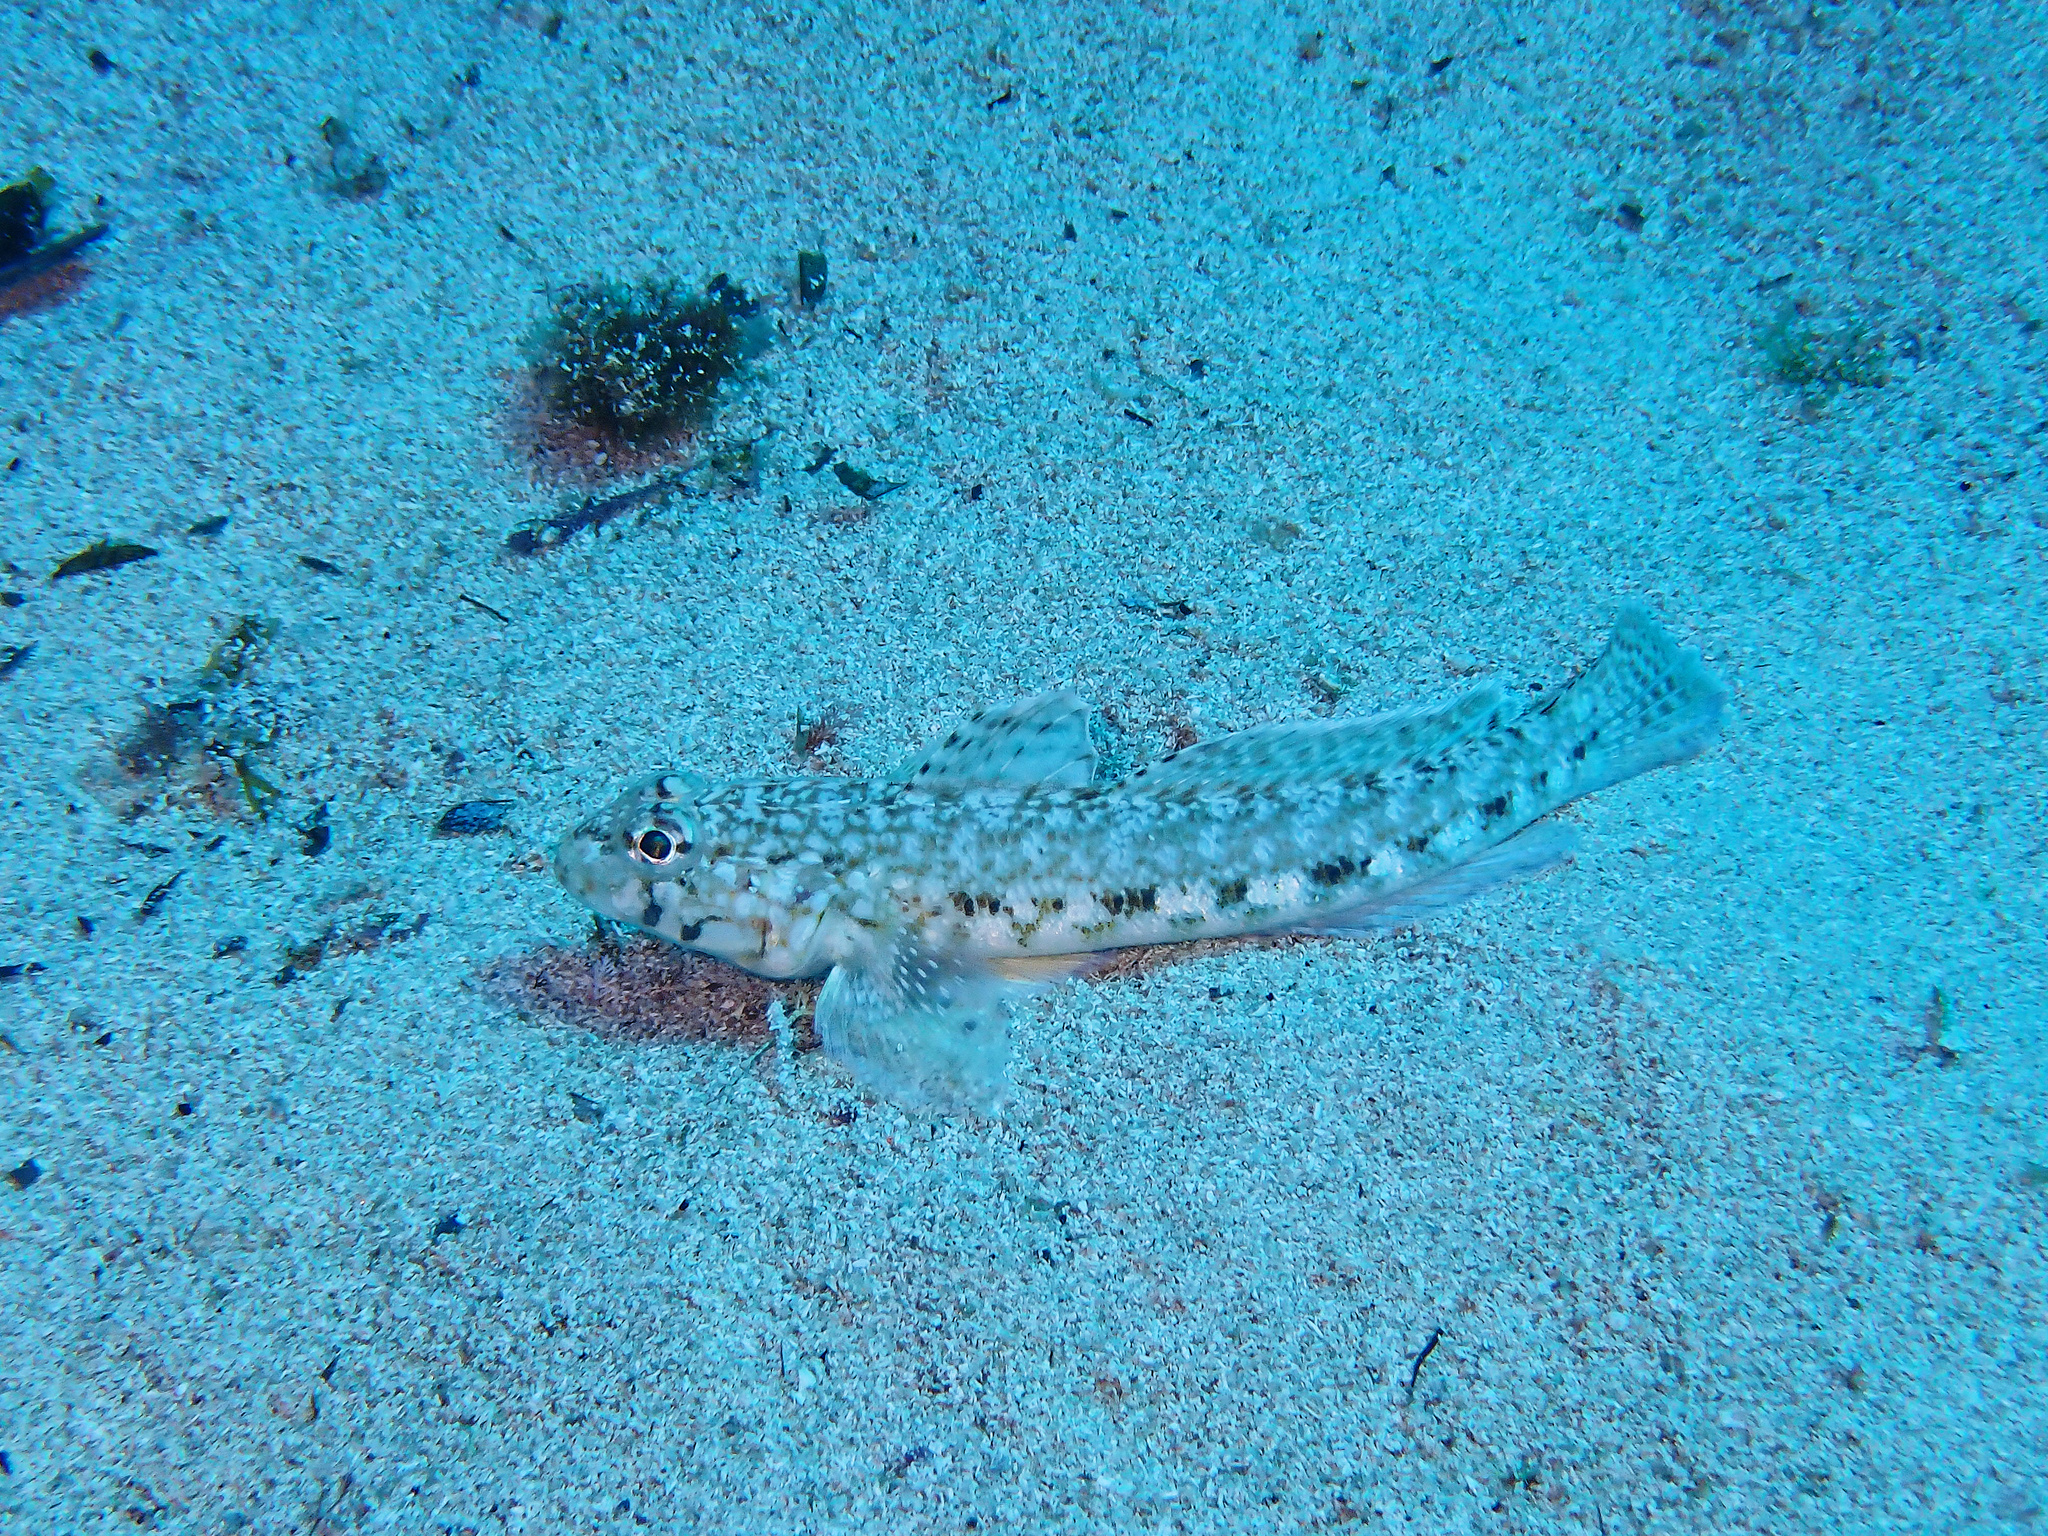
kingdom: Animalia
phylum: Chordata
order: Perciformes
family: Gobiidae
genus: Gobius
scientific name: Gobius geniporus
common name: Slender goby
